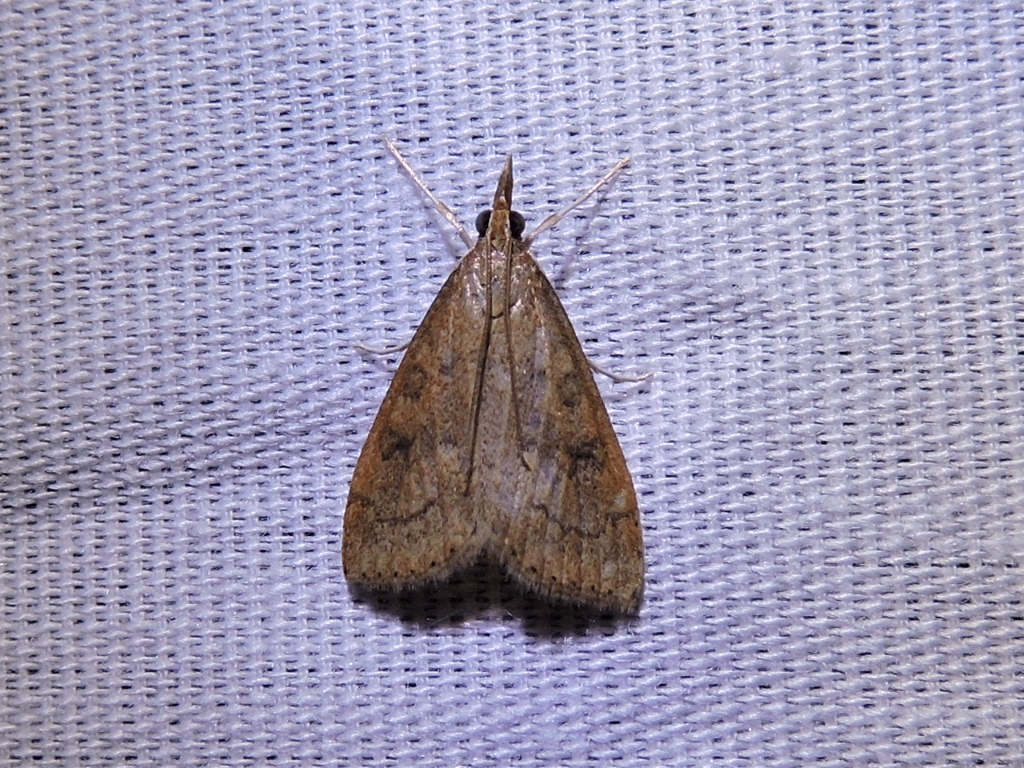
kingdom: Animalia
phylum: Arthropoda
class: Insecta
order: Lepidoptera
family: Crambidae
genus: Udea
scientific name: Udea rubigalis
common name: Celery leaftier moth
